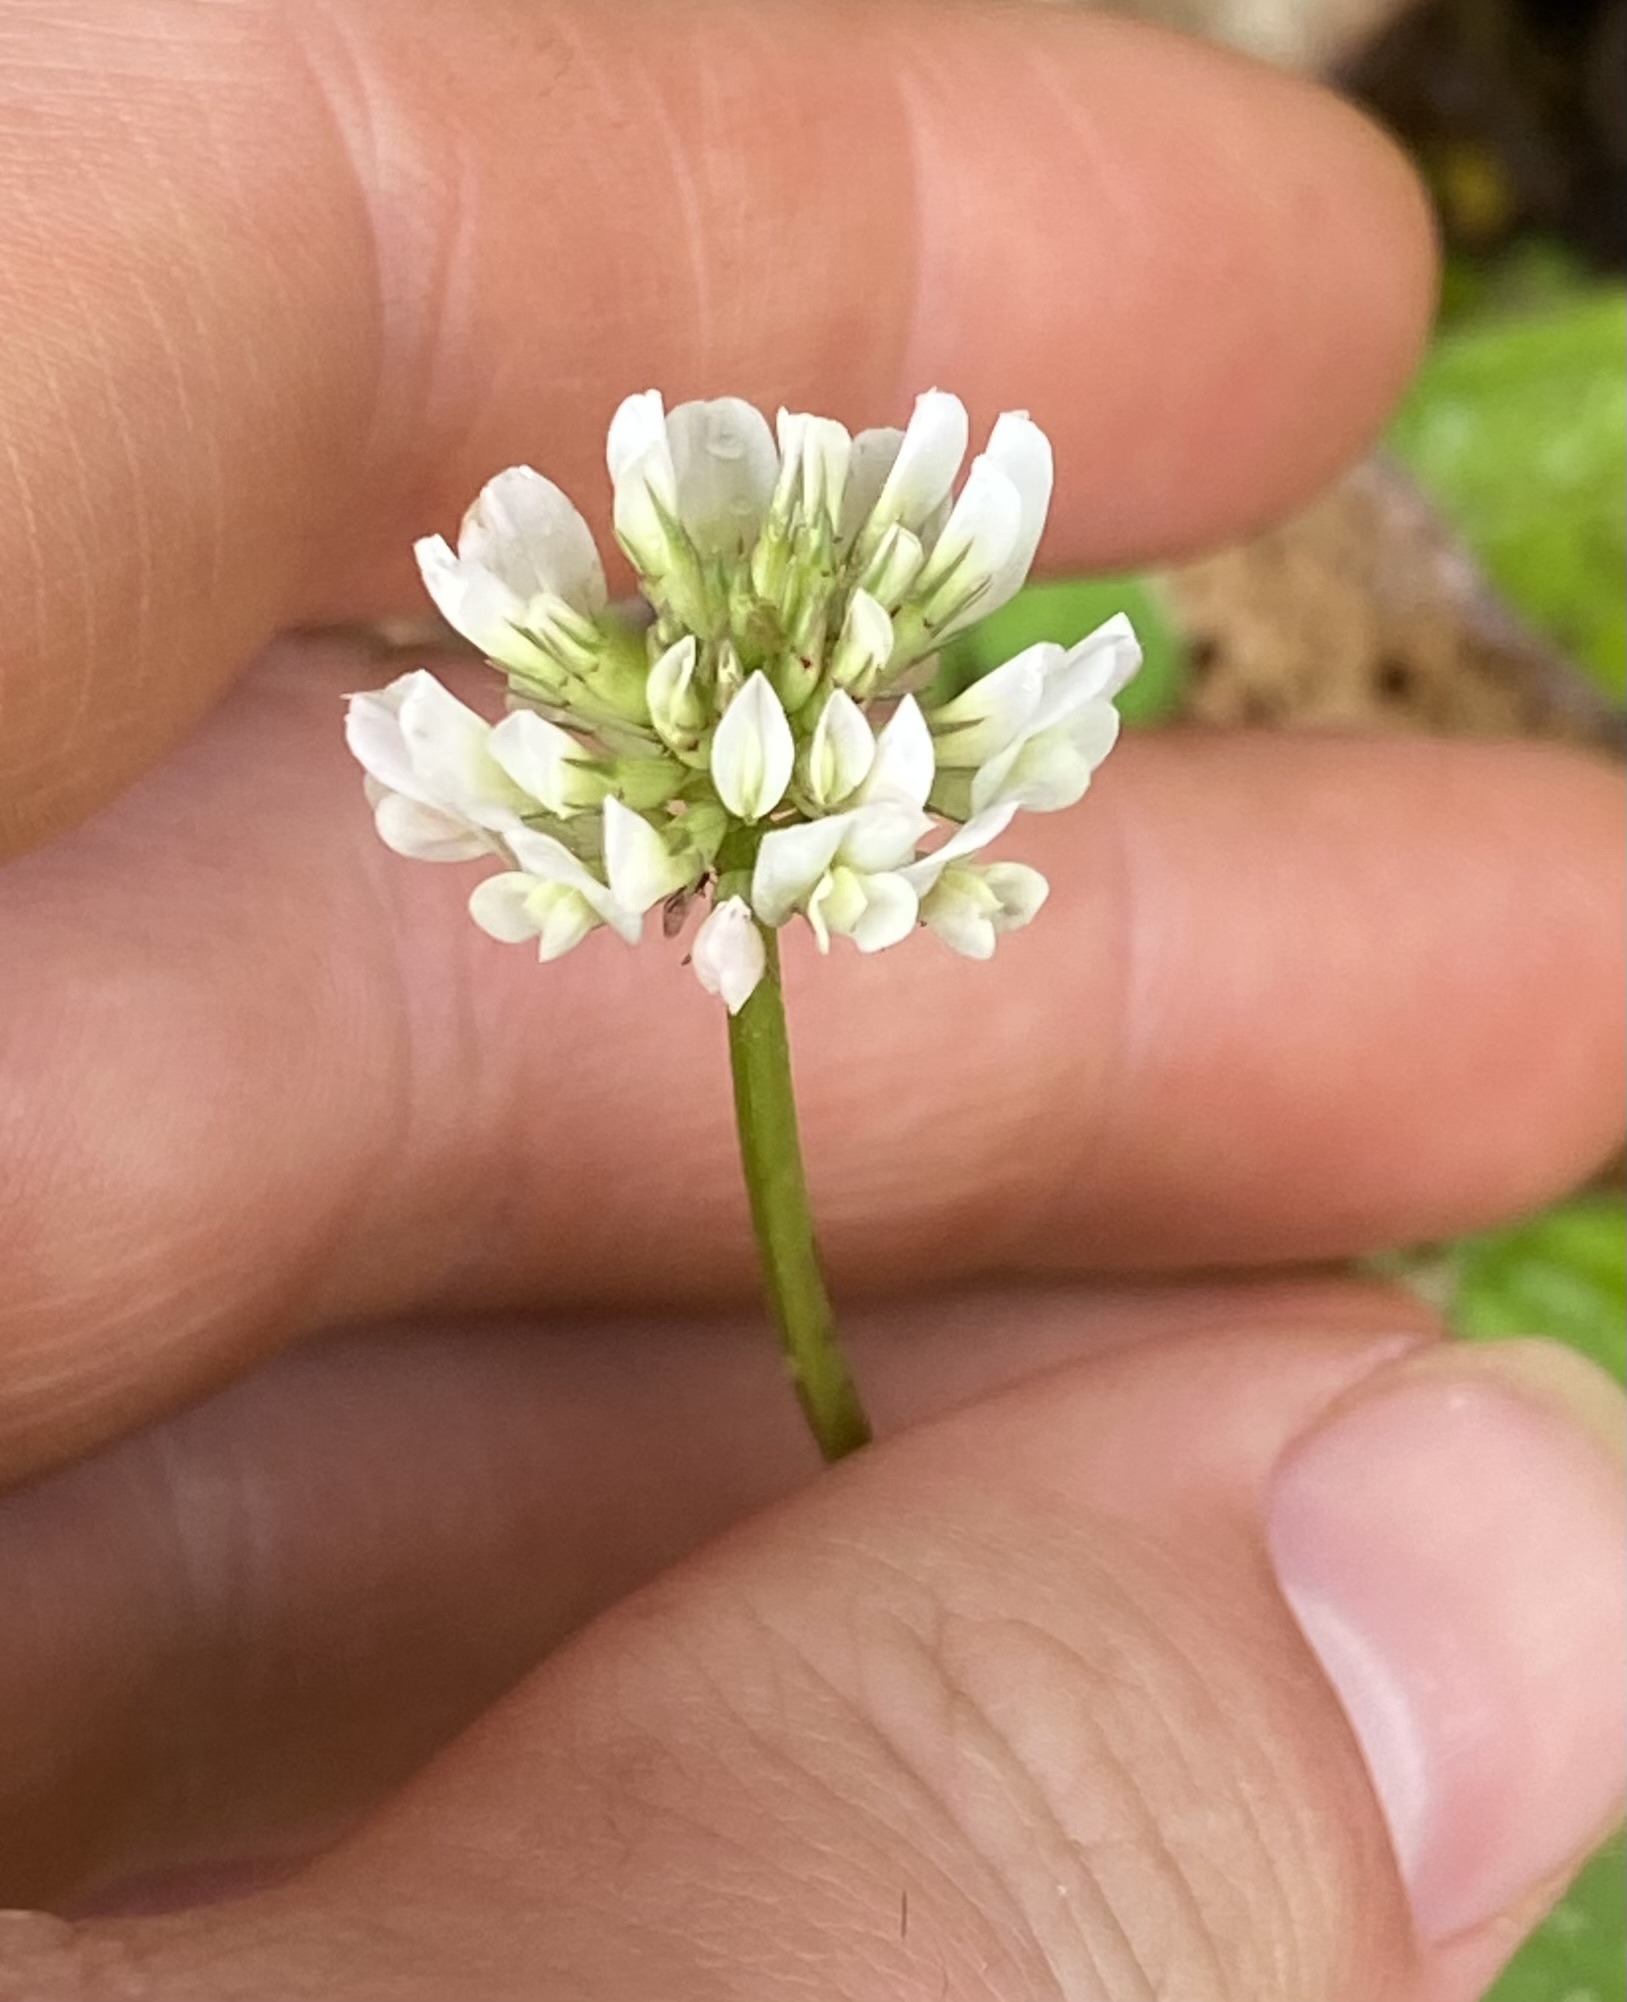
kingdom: Plantae
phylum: Tracheophyta
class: Magnoliopsida
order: Fabales
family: Fabaceae
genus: Trifolium
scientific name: Trifolium repens
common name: White clover
